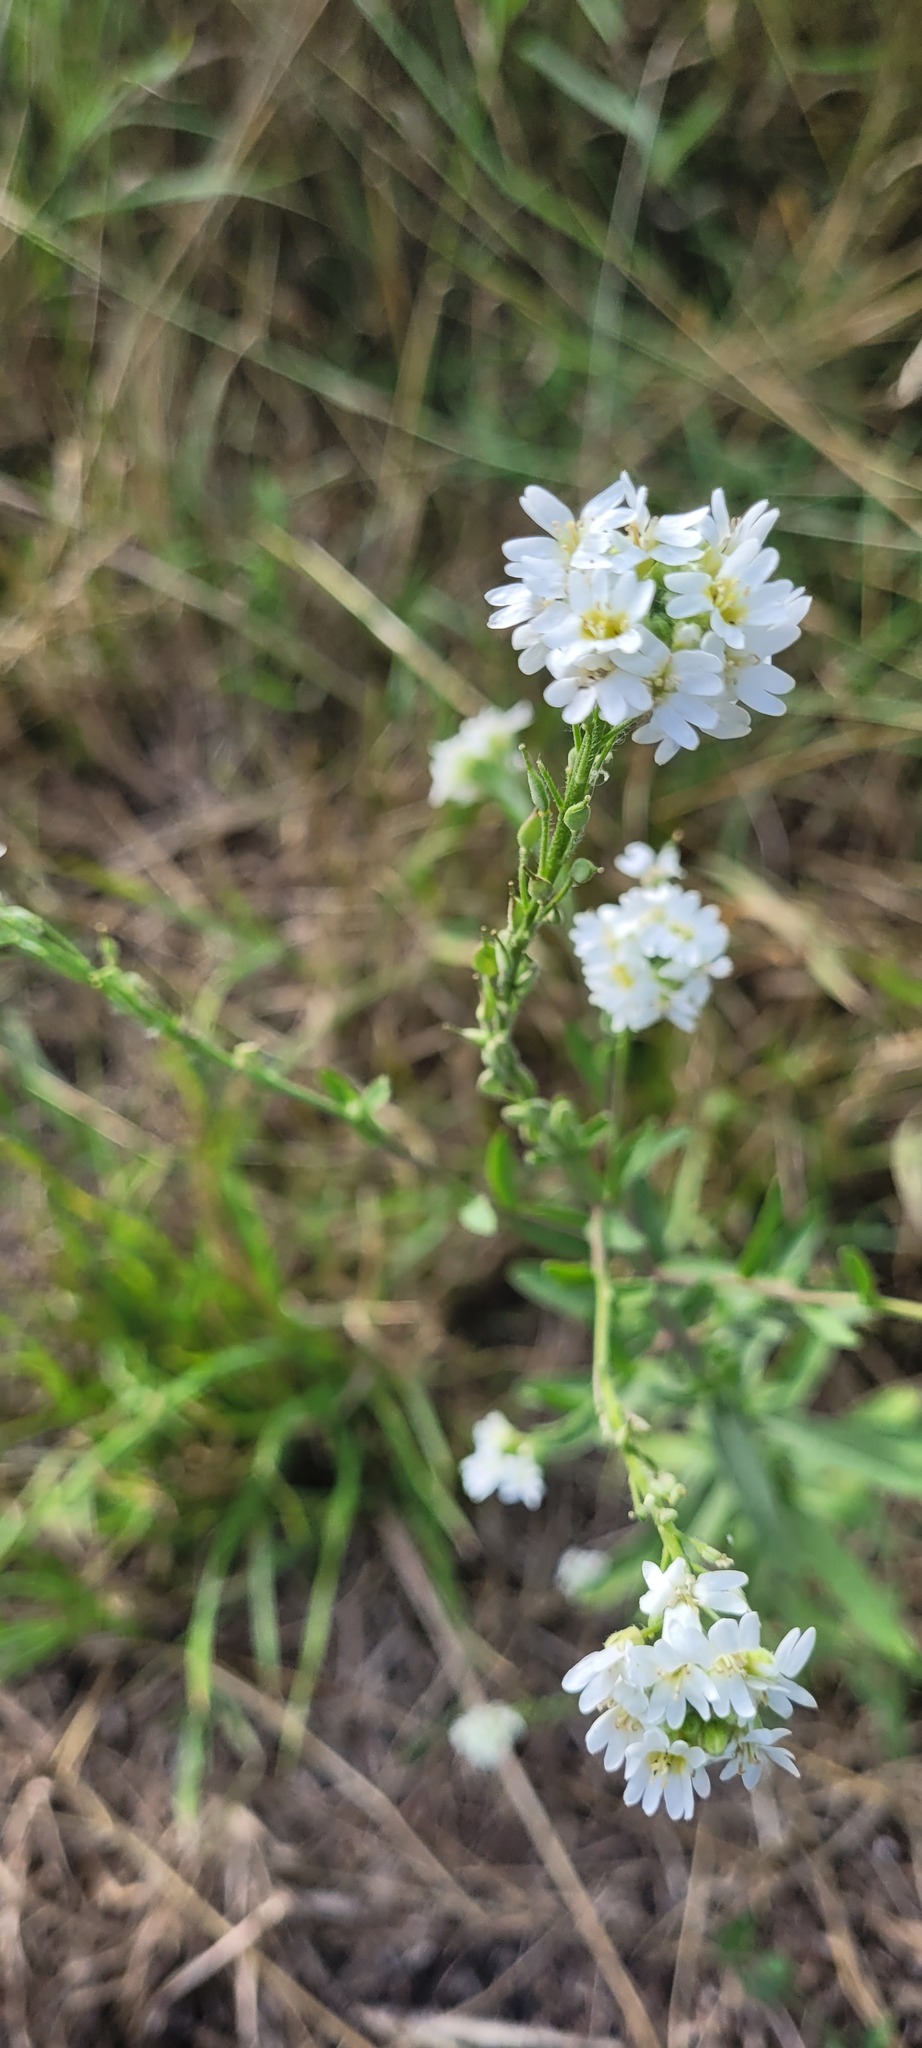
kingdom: Plantae
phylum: Tracheophyta
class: Magnoliopsida
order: Brassicales
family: Brassicaceae
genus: Berteroa
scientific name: Berteroa incana
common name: Hoary alison
